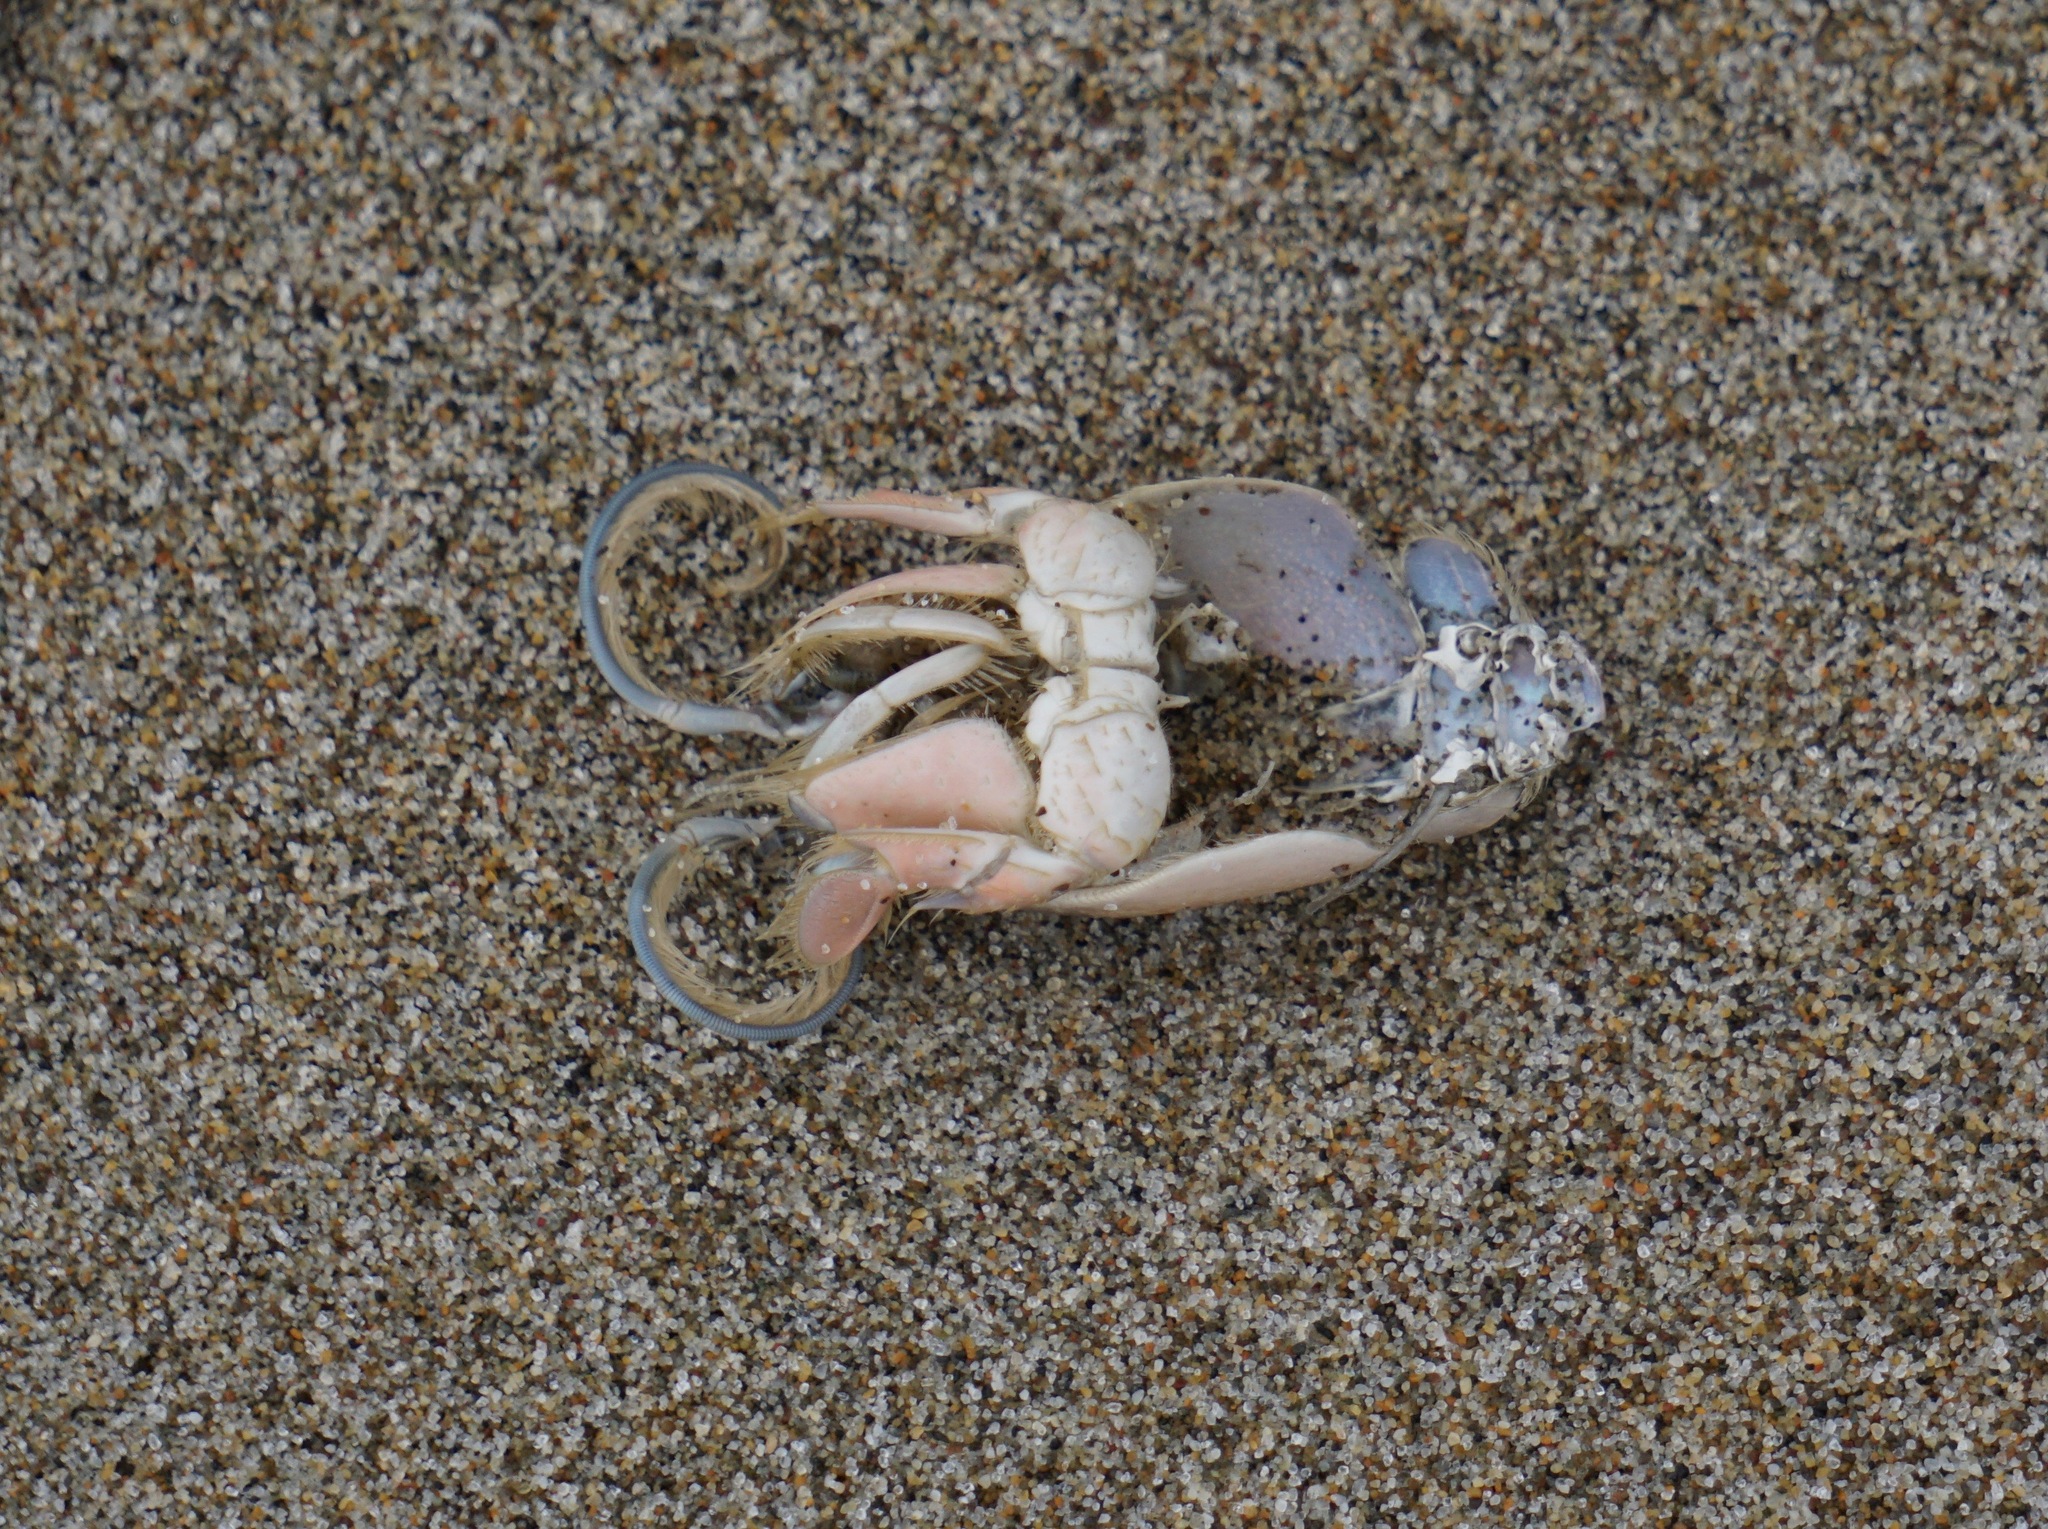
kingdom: Animalia
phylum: Arthropoda
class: Malacostraca
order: Decapoda
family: Hippidae
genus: Emerita
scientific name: Emerita analoga
